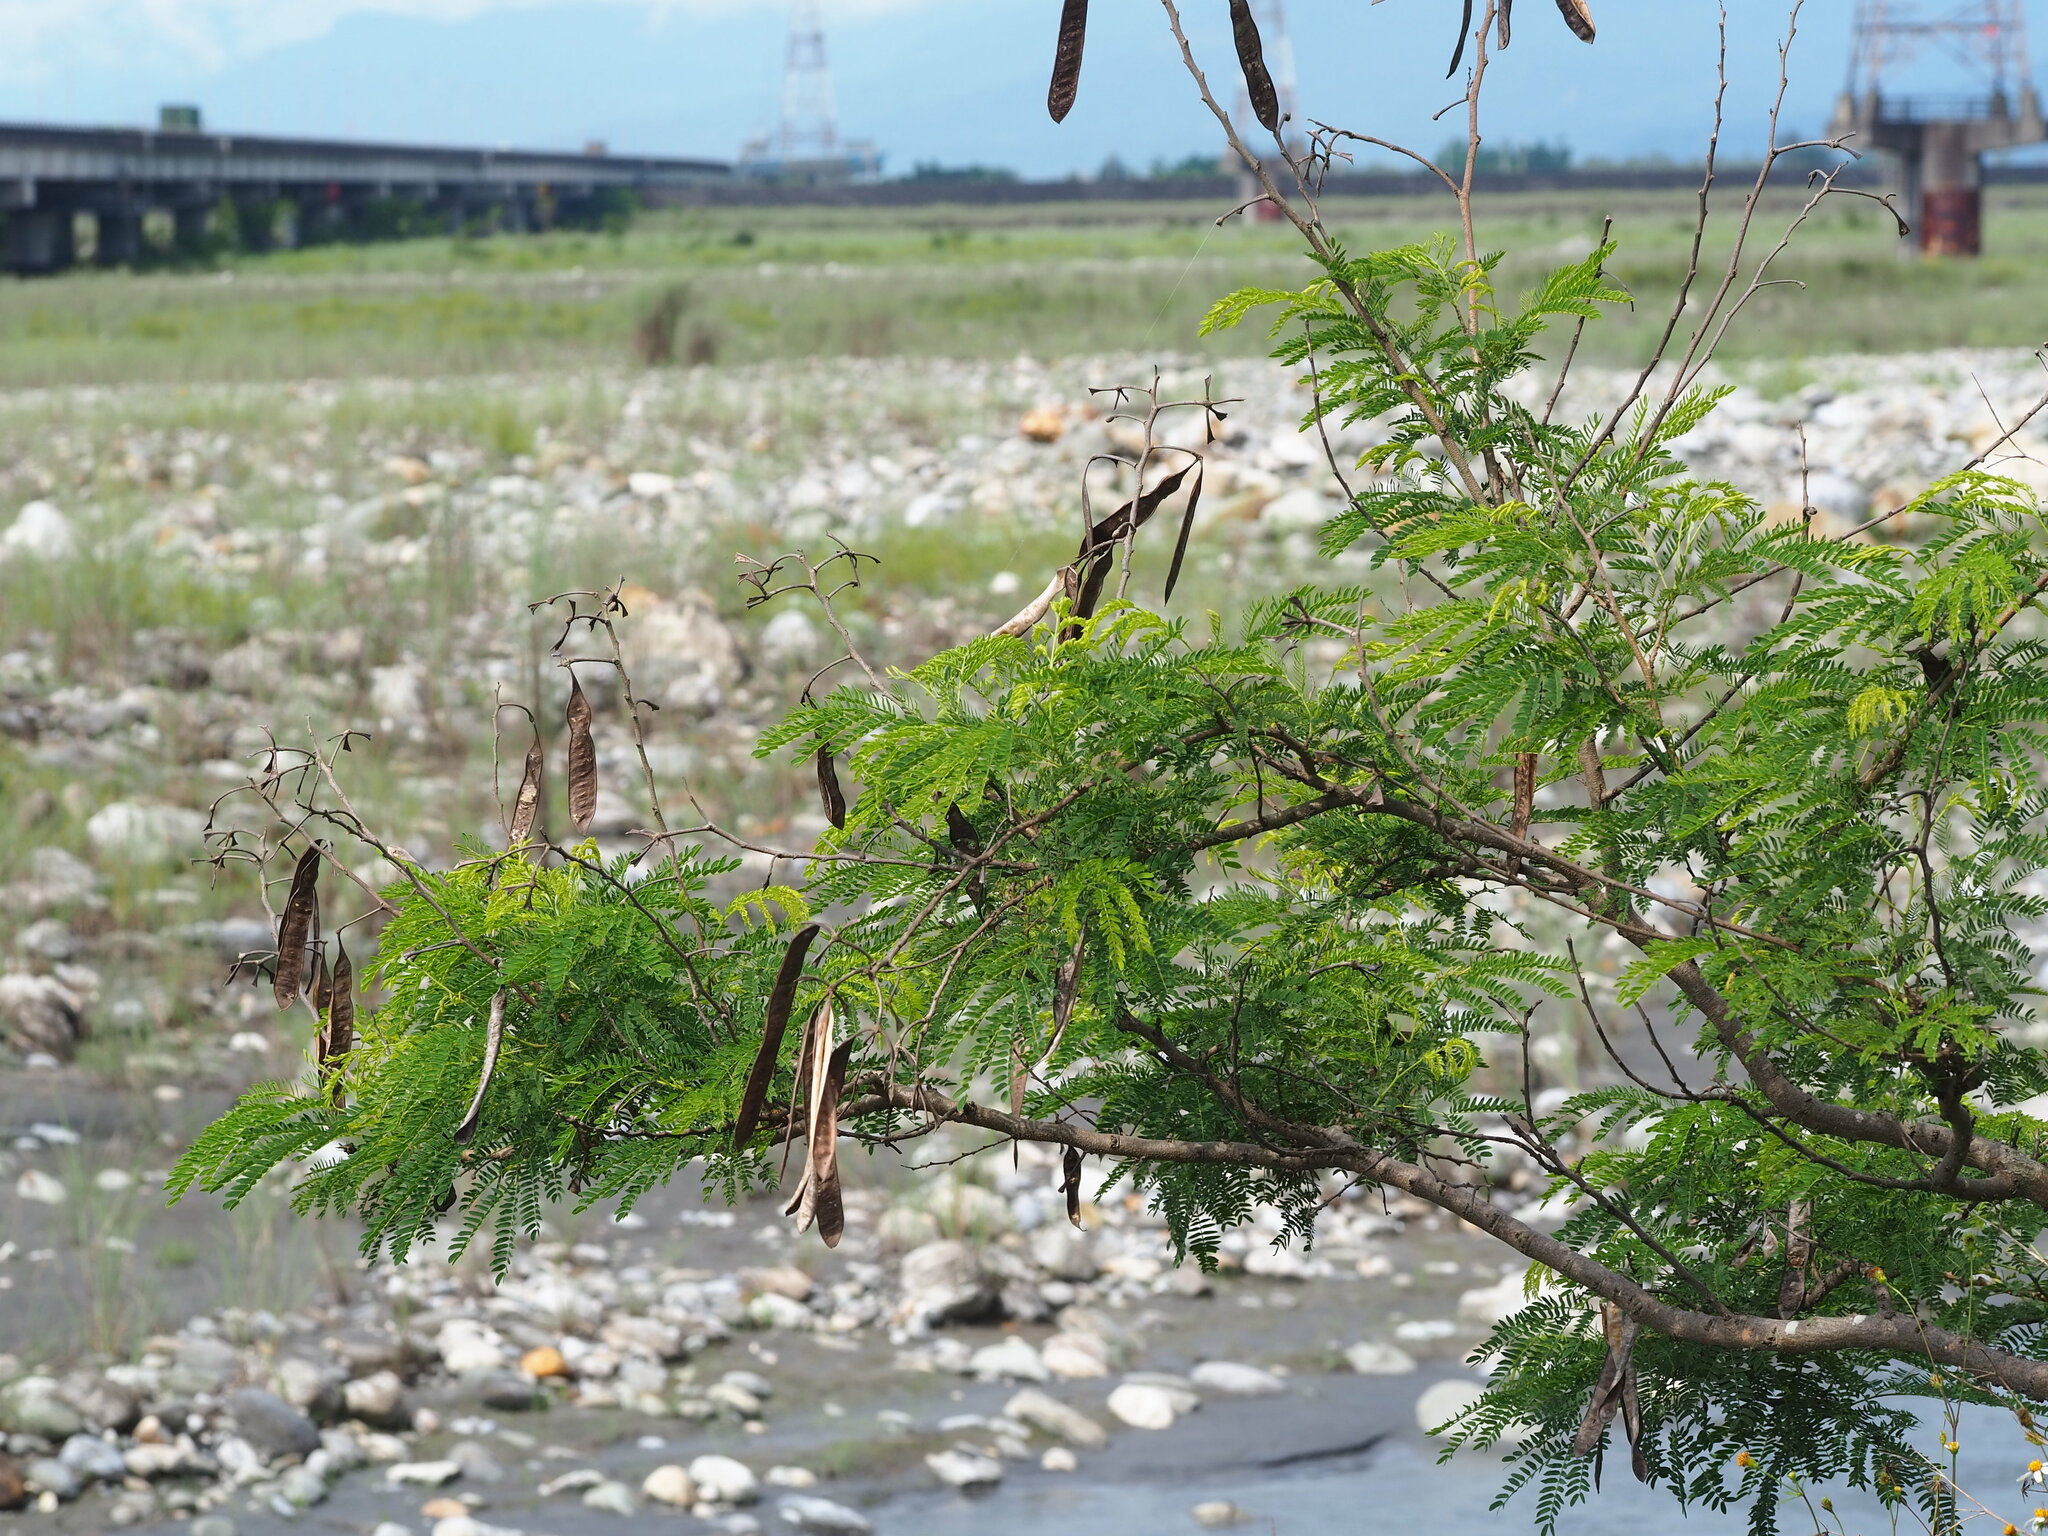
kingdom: Plantae
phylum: Tracheophyta
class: Magnoliopsida
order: Fabales
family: Fabaceae
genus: Leucaena
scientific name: Leucaena leucocephala
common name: White leadtree
